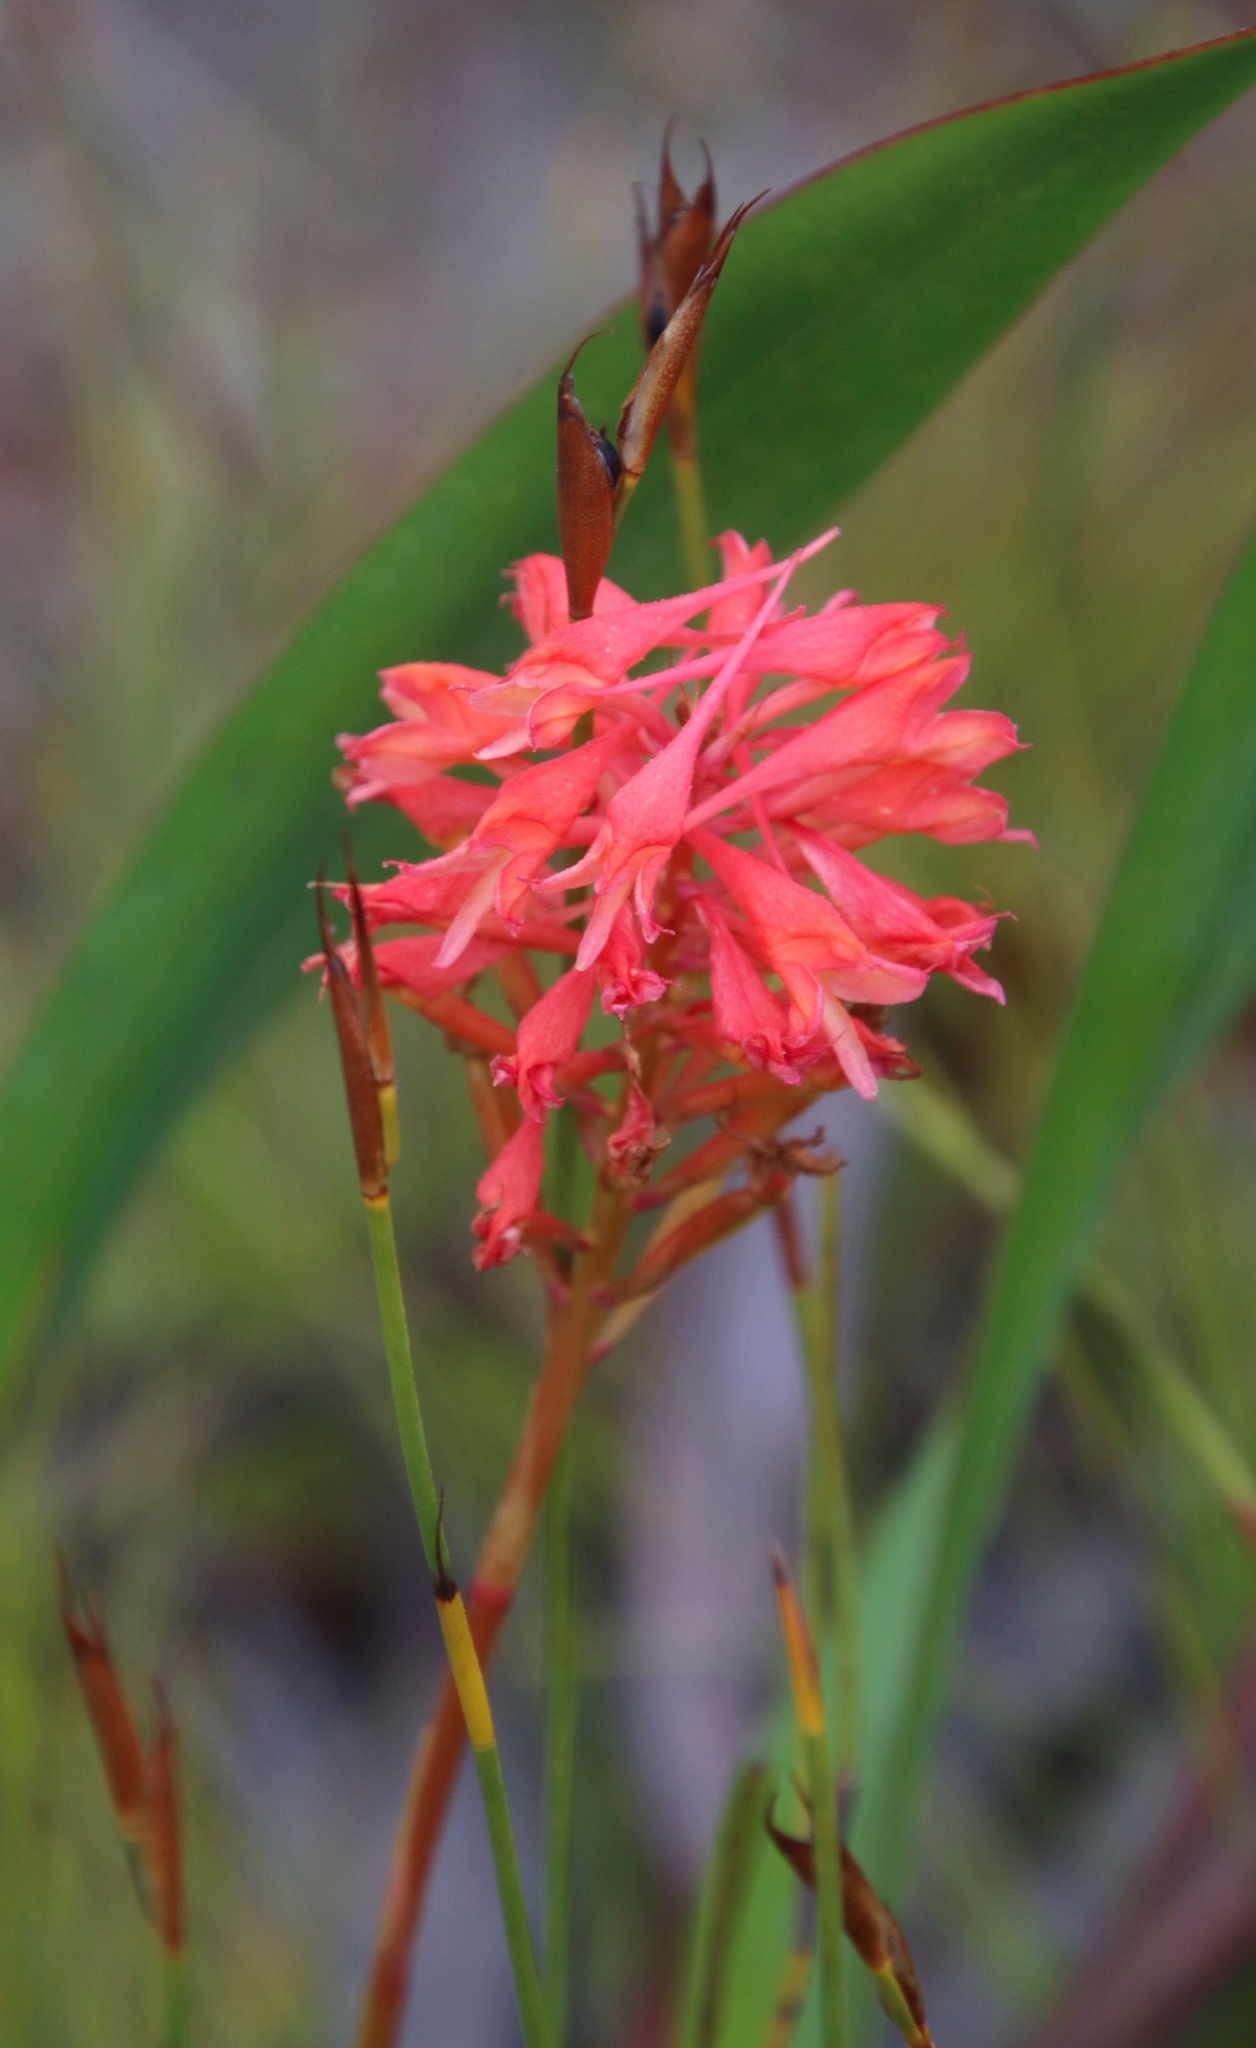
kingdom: Plantae
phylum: Tracheophyta
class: Liliopsida
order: Asparagales
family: Orchidaceae
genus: Disa
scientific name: Disa ferruginea
